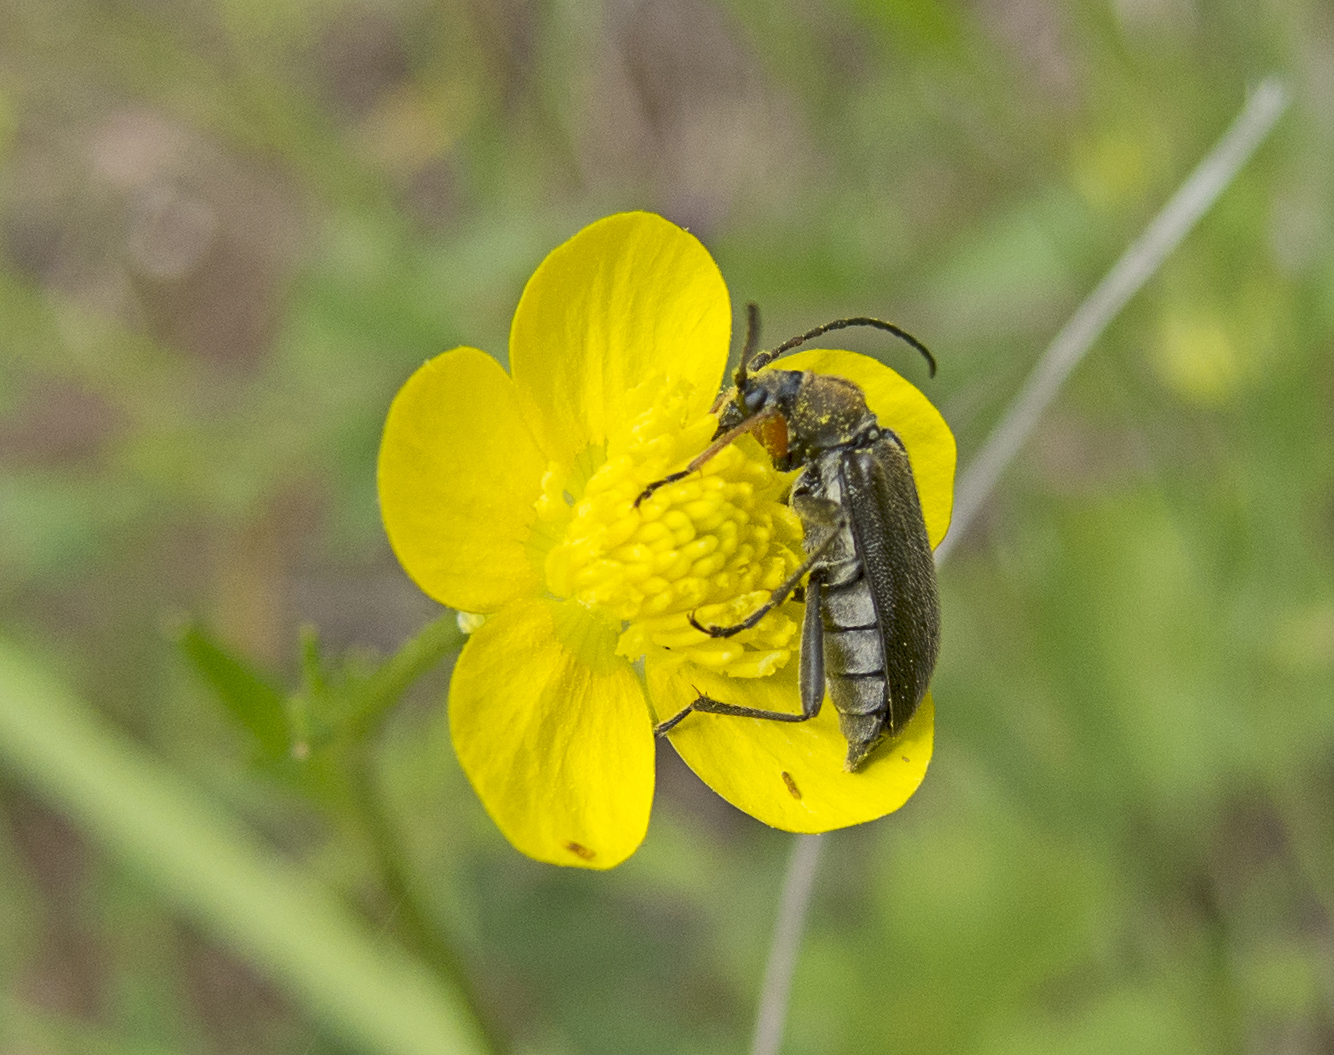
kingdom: Animalia
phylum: Arthropoda
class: Insecta
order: Coleoptera
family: Cerambycidae
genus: Cortodera
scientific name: Cortodera flavimana
